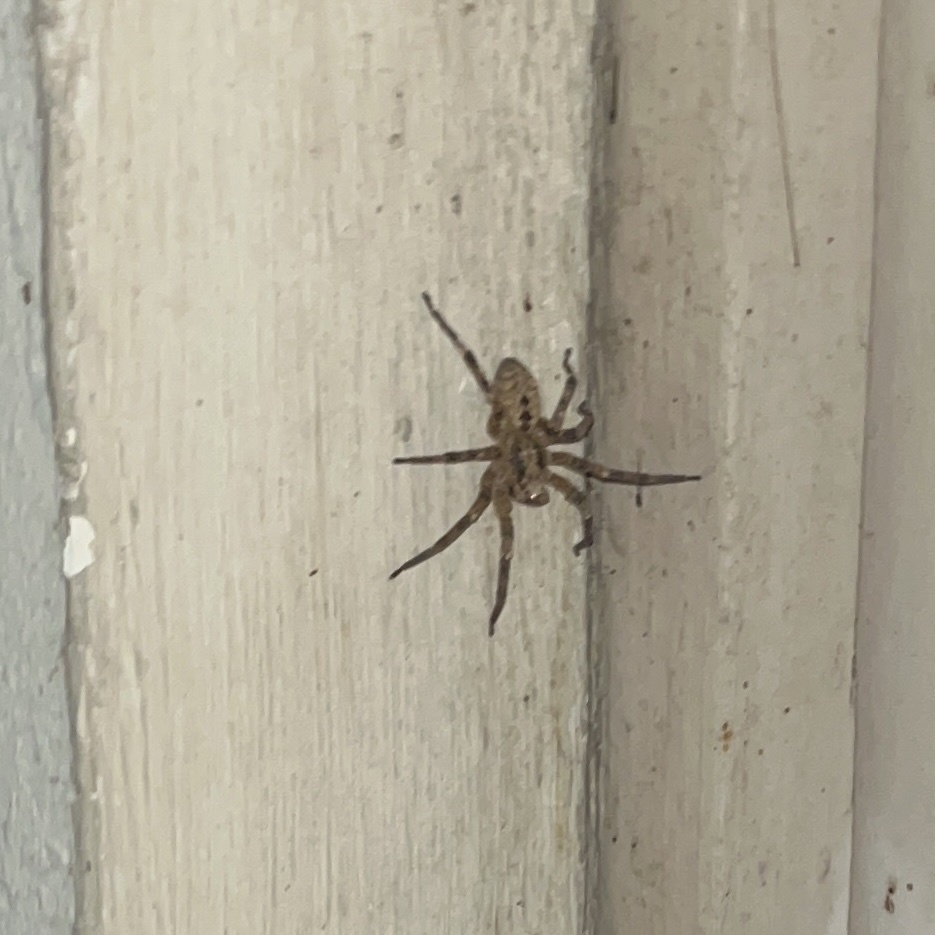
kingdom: Animalia
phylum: Arthropoda
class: Arachnida
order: Araneae
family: Zoropsidae
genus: Zoropsis
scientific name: Zoropsis spinimana
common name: Zoropsid spider
